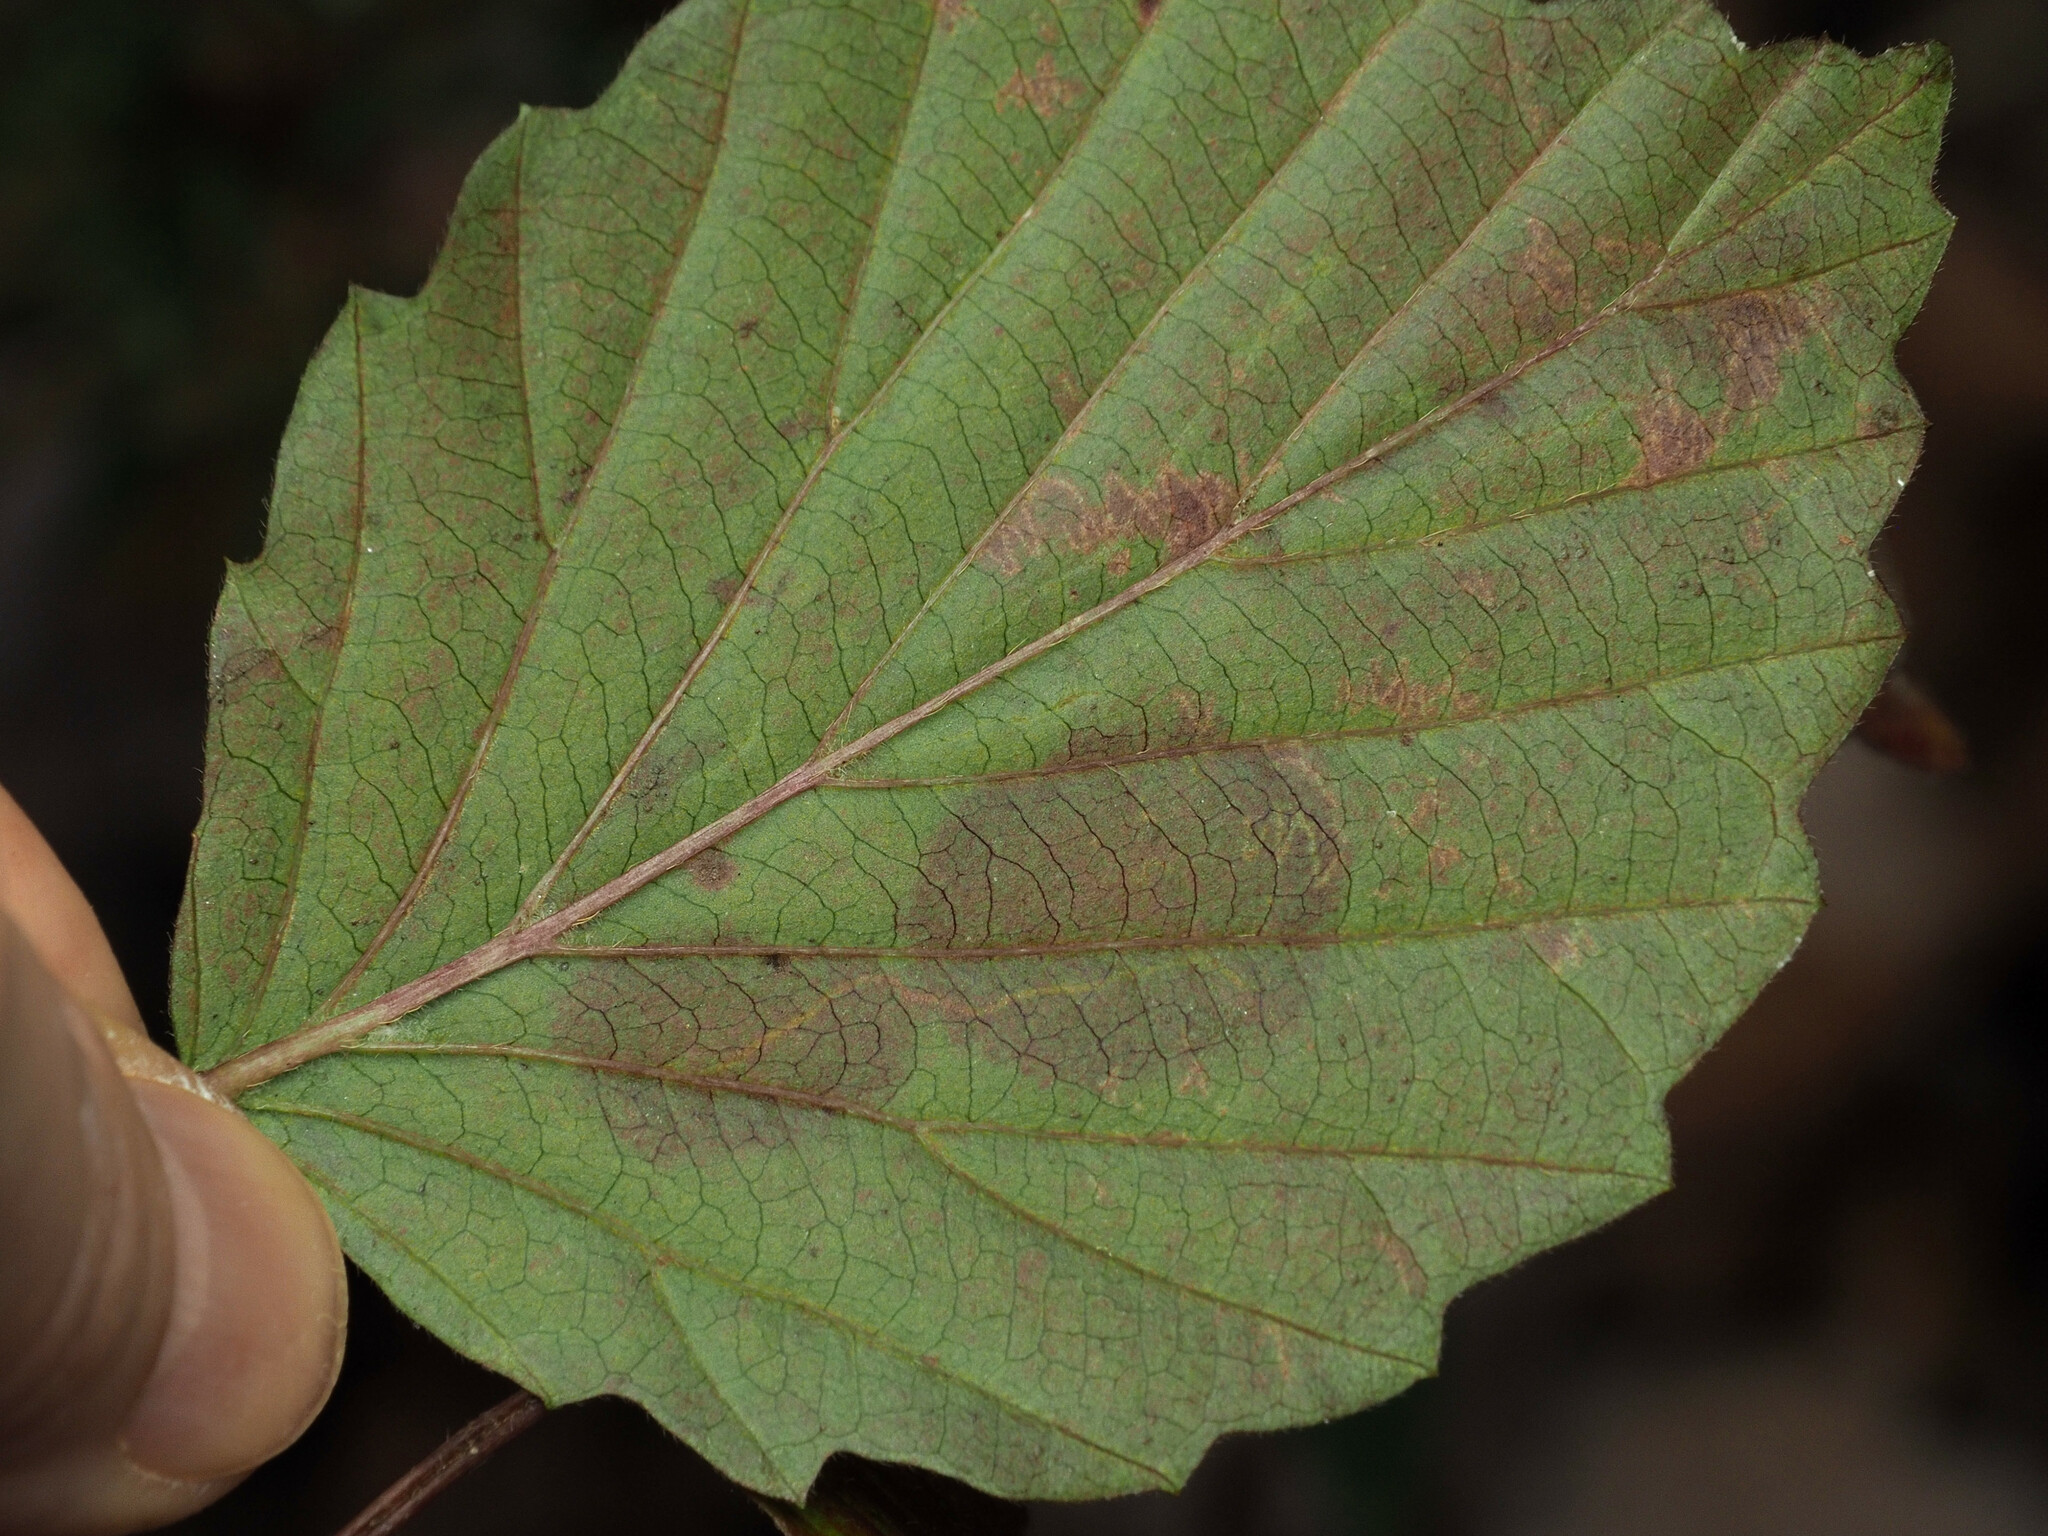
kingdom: Animalia
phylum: Arthropoda
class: Insecta
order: Lepidoptera
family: Gracillariidae
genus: Marmara
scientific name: Marmara viburnella
